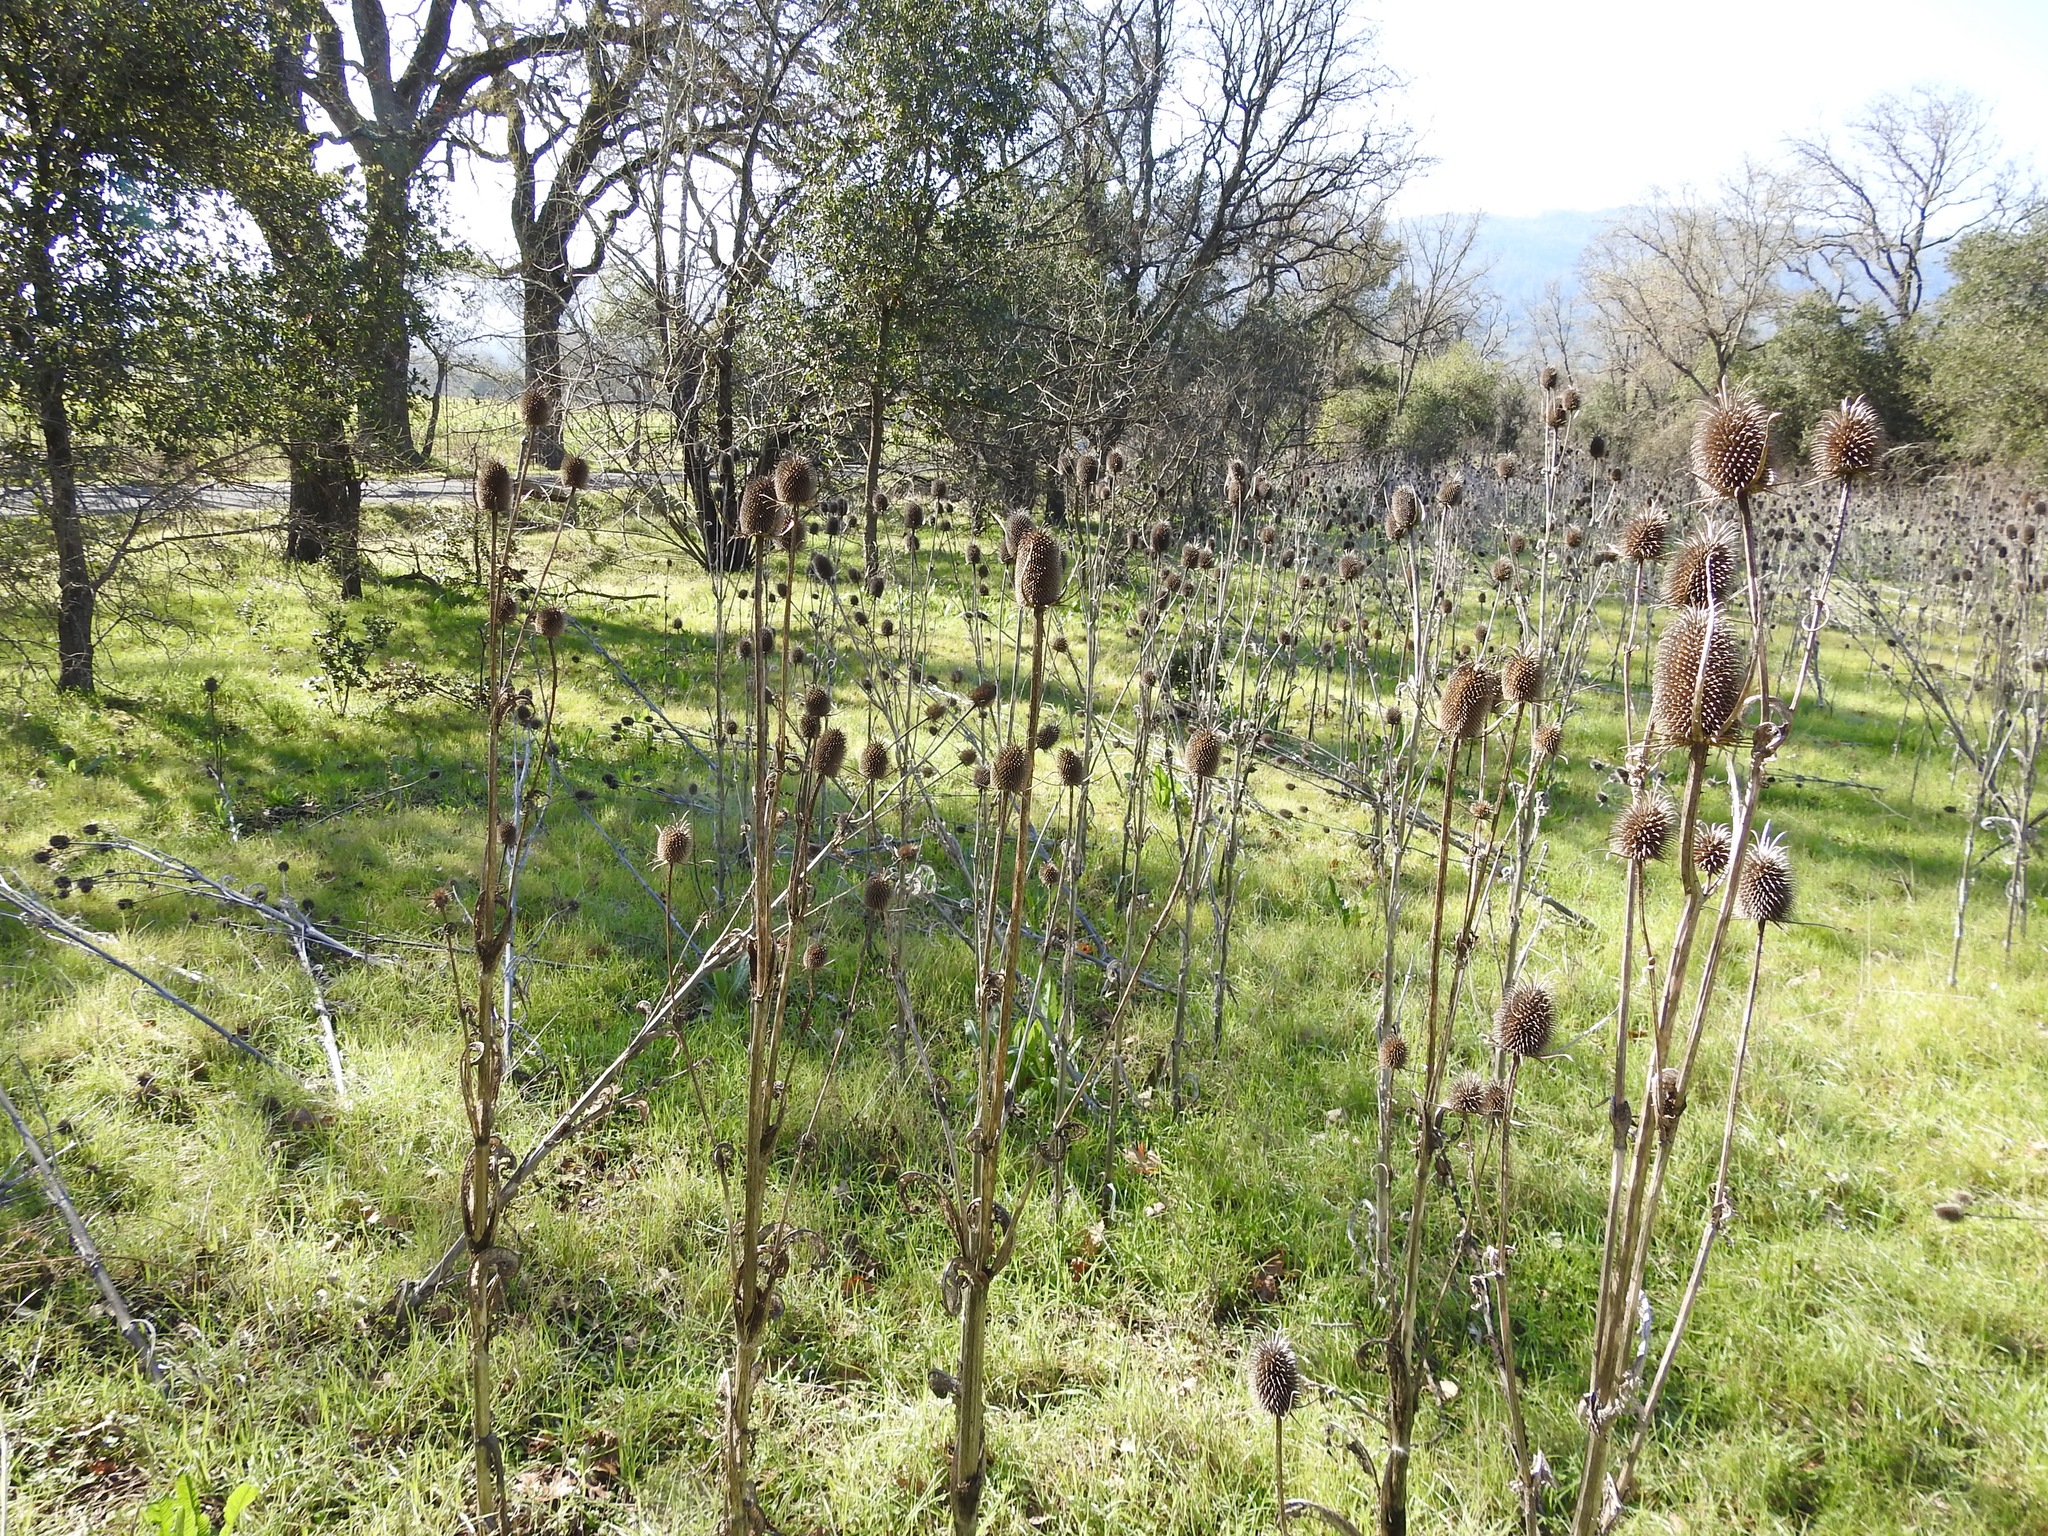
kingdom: Plantae
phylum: Tracheophyta
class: Magnoliopsida
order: Dipsacales
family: Caprifoliaceae
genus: Dipsacus
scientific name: Dipsacus sativus
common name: Fuller's teasel
